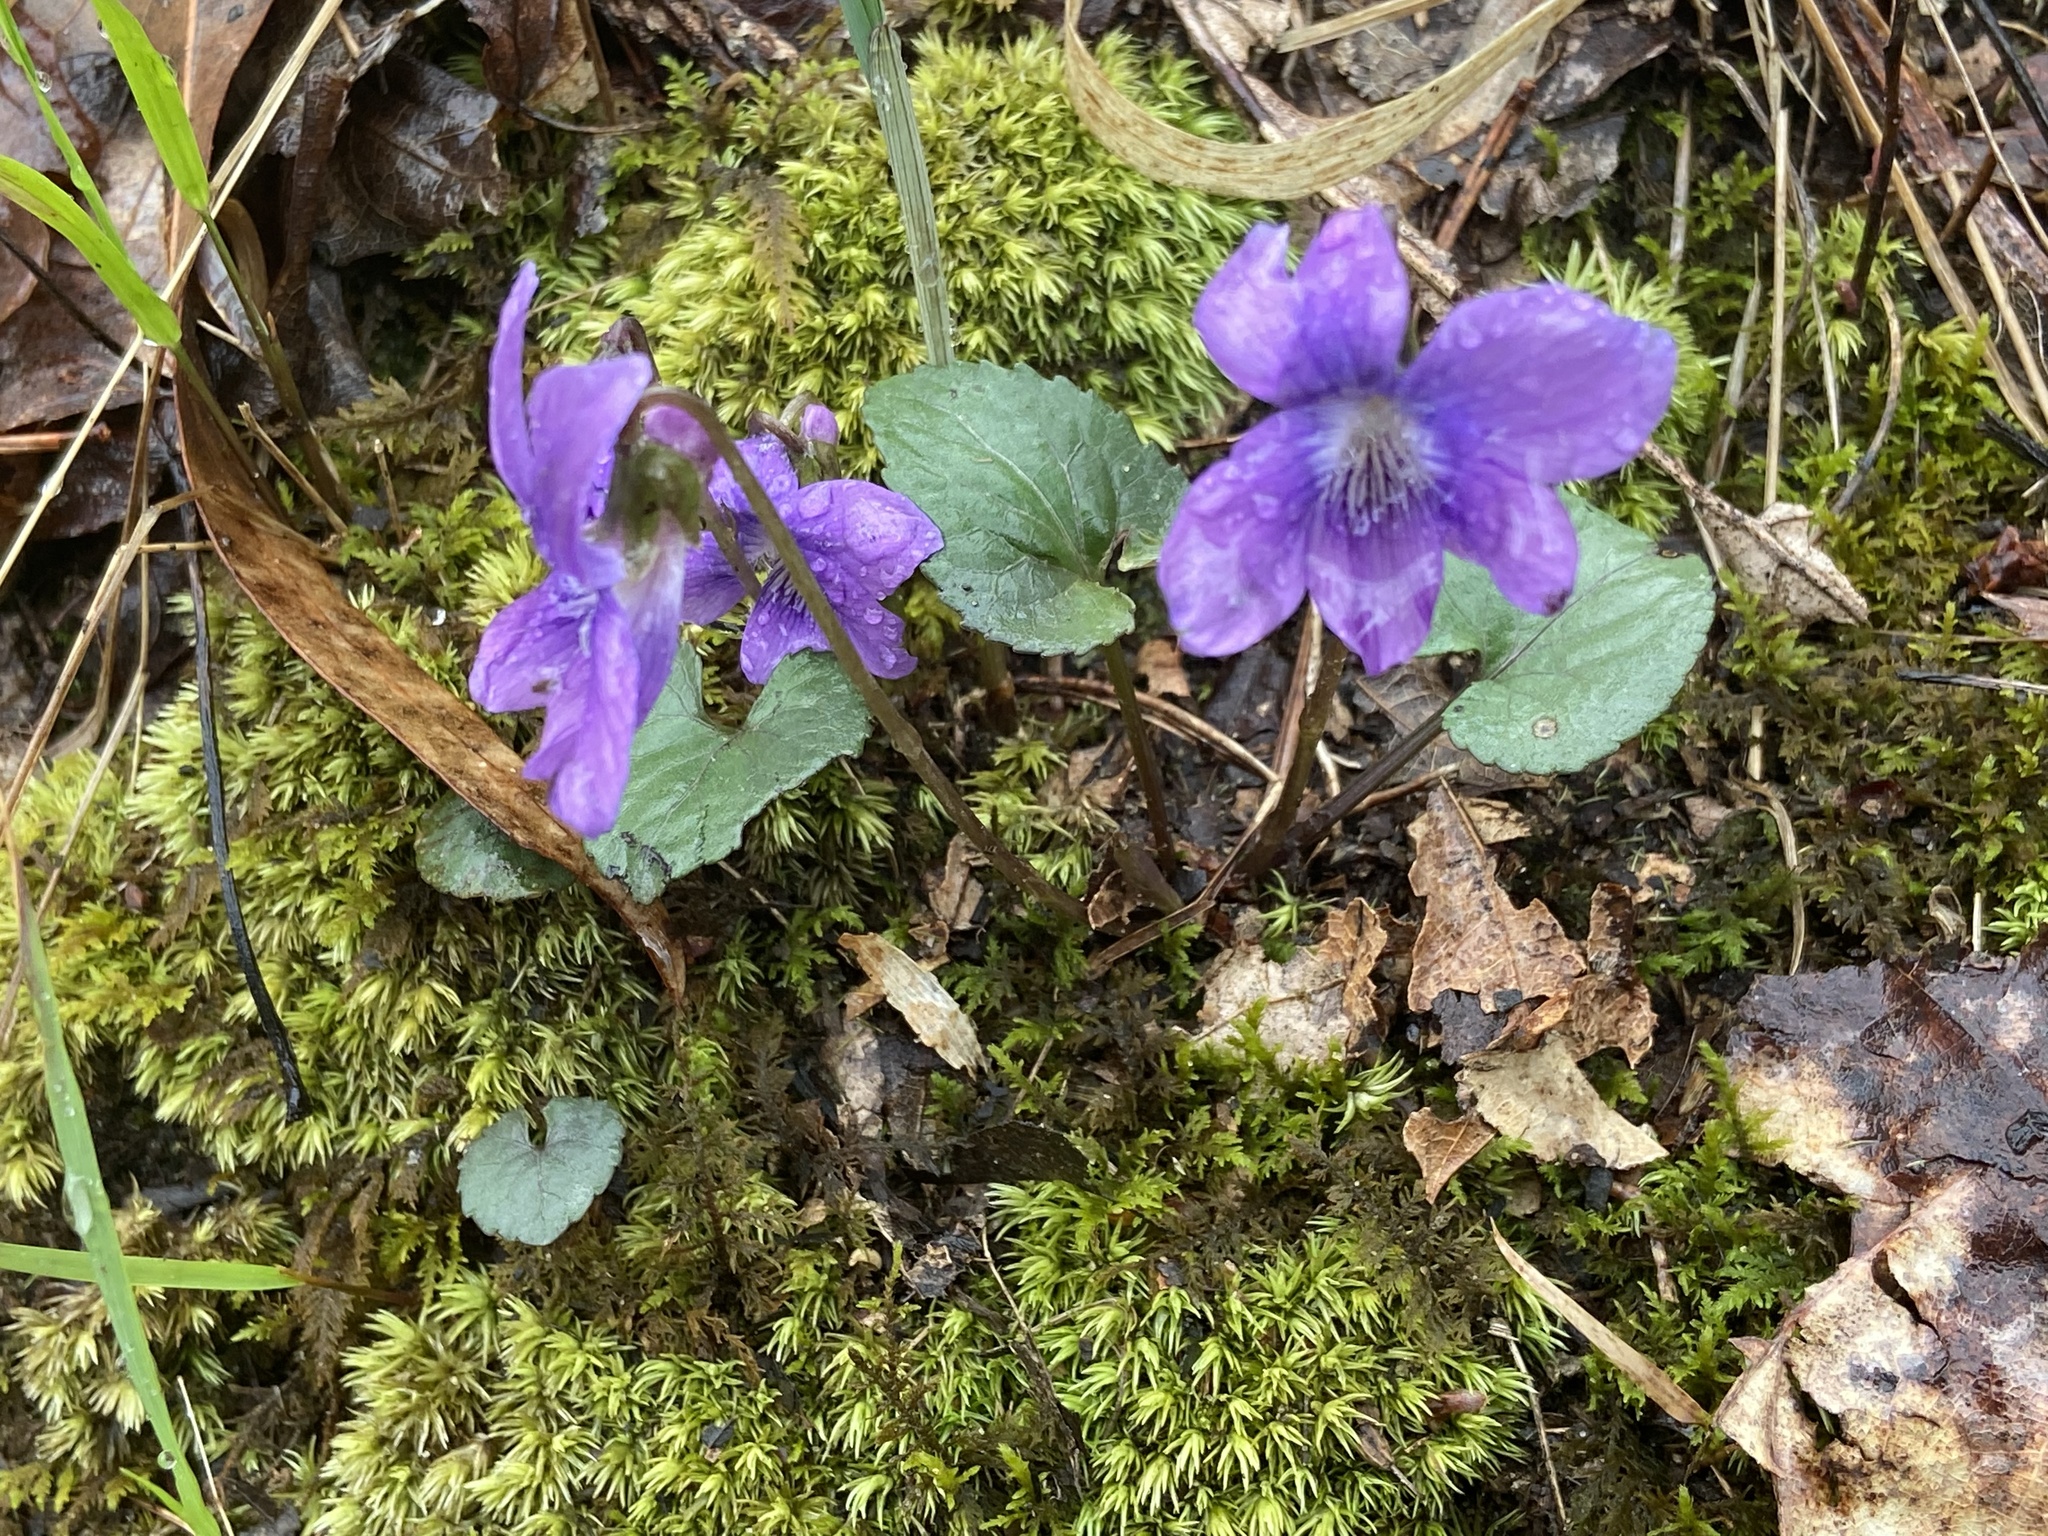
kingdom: Plantae
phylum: Tracheophyta
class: Magnoliopsida
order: Malpighiales
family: Violaceae
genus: Viola
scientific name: Viola hirsutula
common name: Southern wood violet
